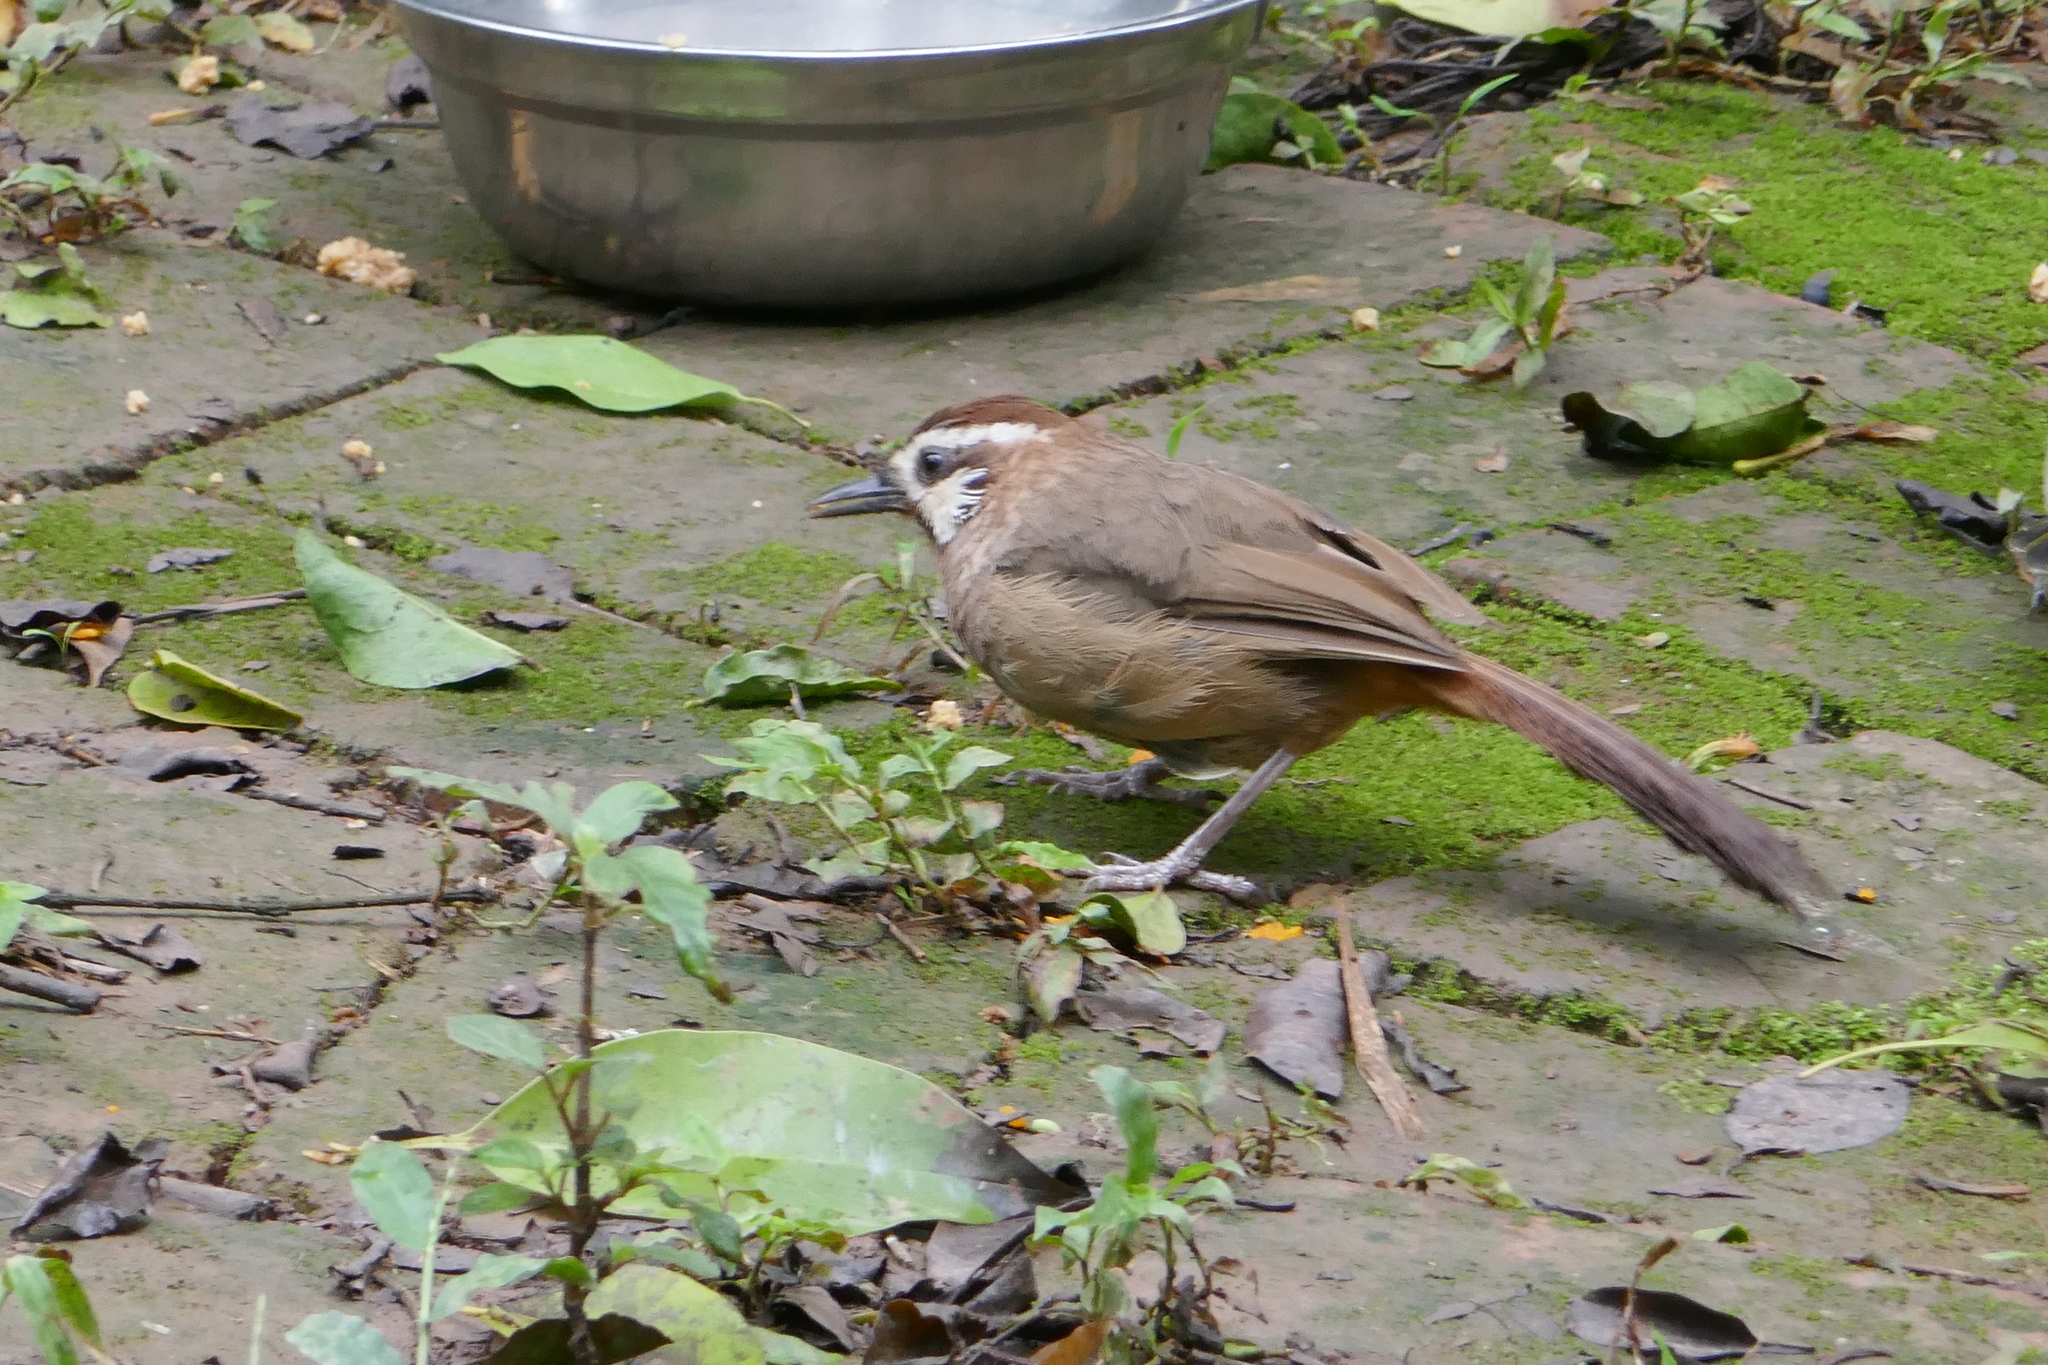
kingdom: Animalia
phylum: Chordata
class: Aves
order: Passeriformes
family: Leiothrichidae
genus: Pterorhinus
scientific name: Pterorhinus sannio
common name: White-browed laughingthrush
